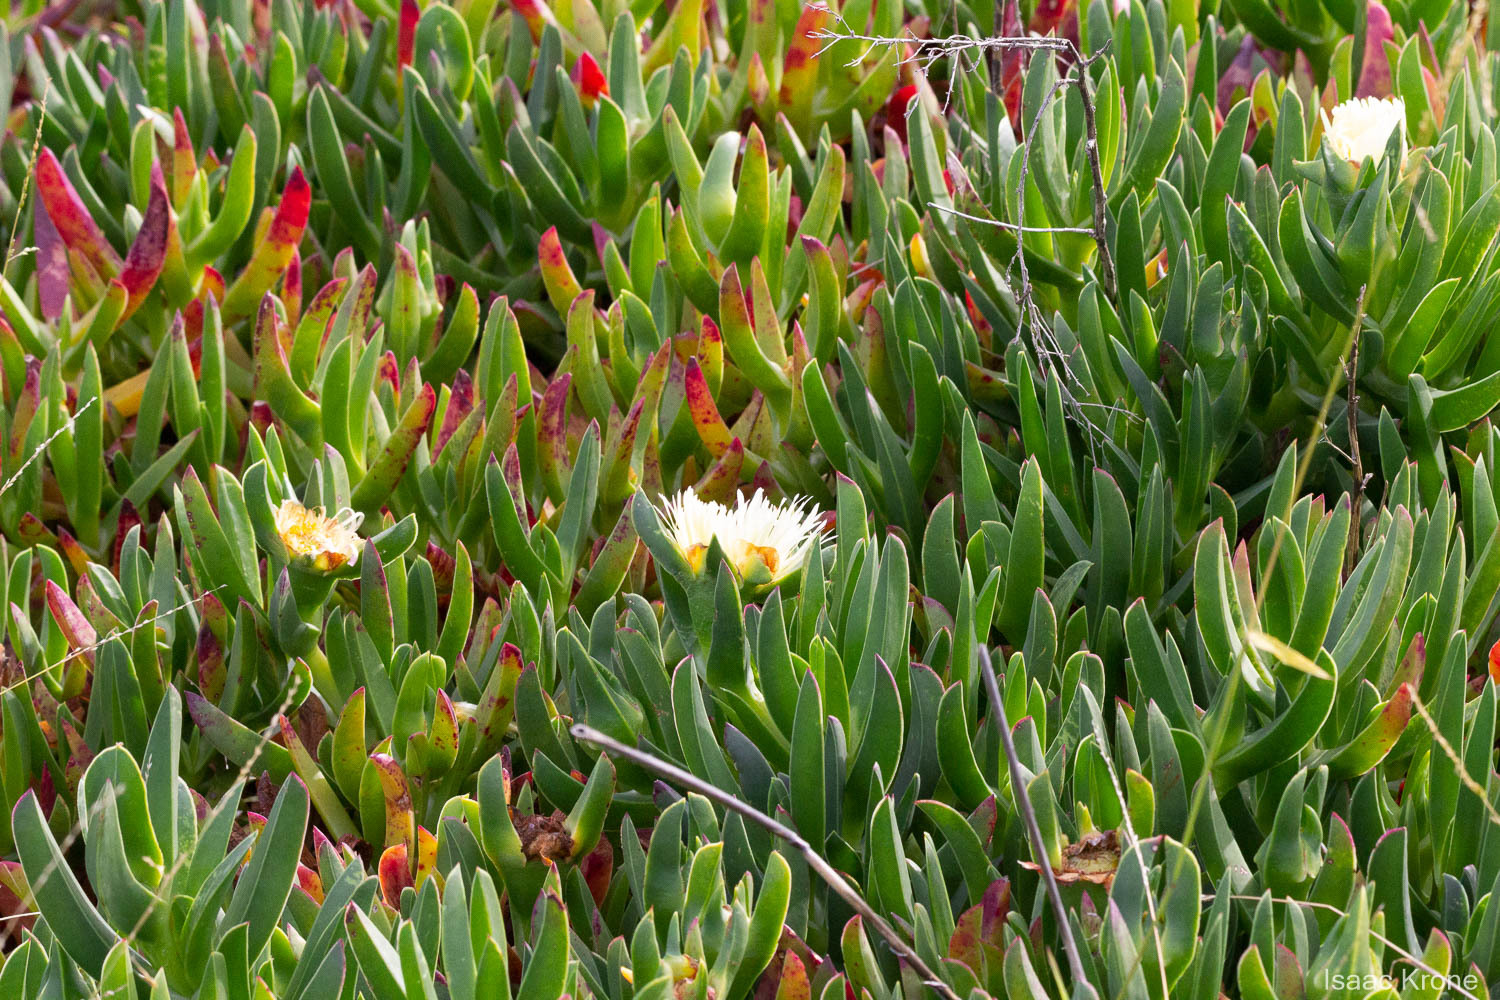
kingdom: Plantae
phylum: Tracheophyta
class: Magnoliopsida
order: Caryophyllales
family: Aizoaceae
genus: Carpobrotus
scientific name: Carpobrotus edulis
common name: Hottentot-fig
